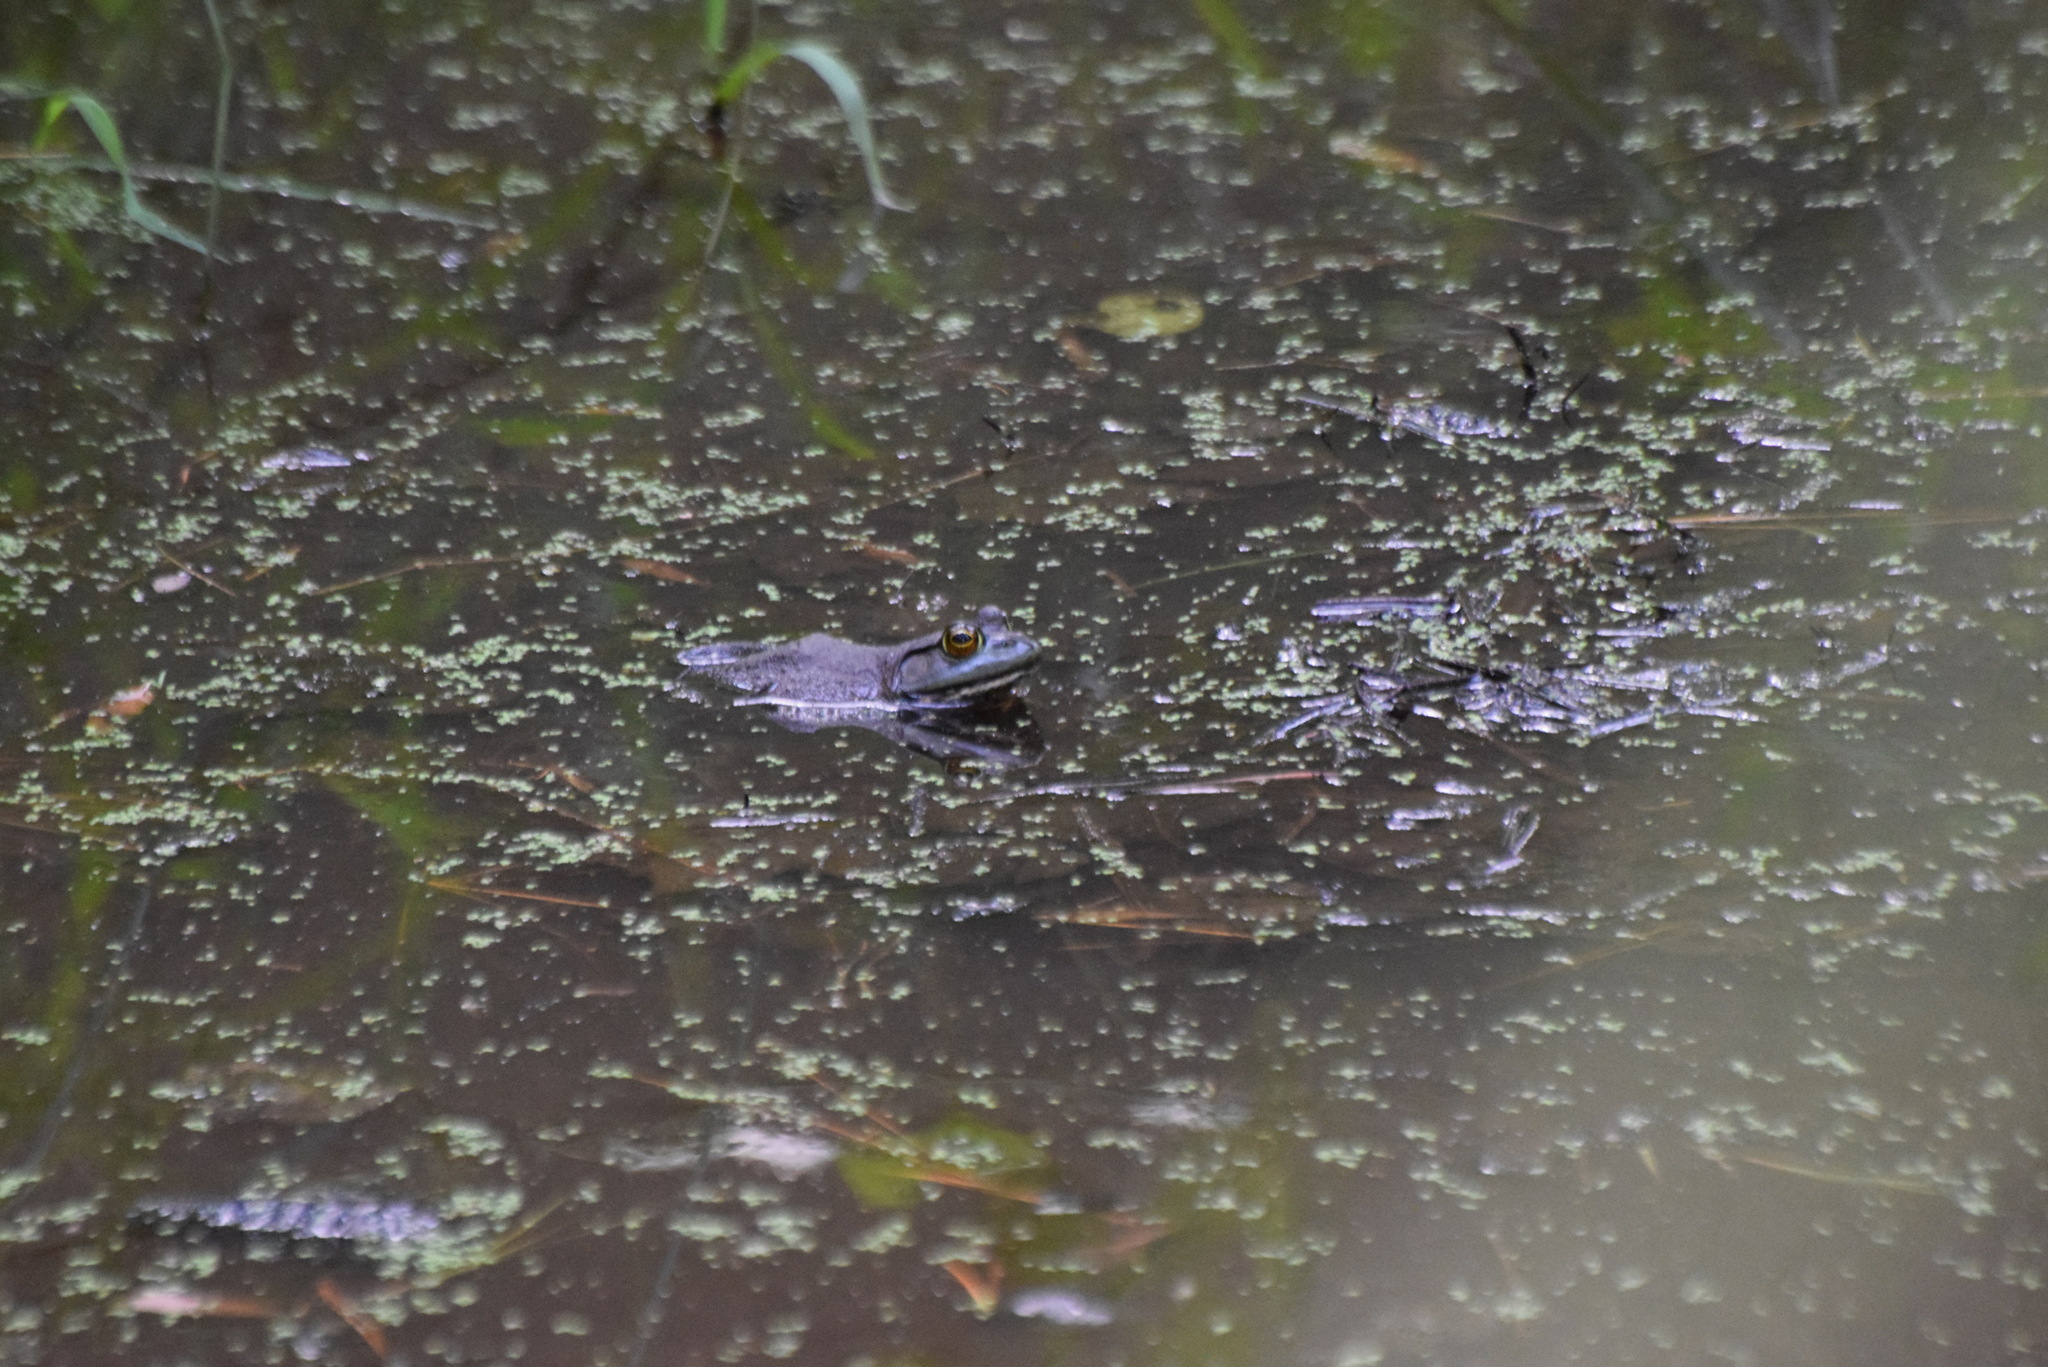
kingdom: Animalia
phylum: Chordata
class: Amphibia
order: Anura
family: Ranidae
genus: Lithobates
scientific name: Lithobates catesbeianus
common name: American bullfrog
